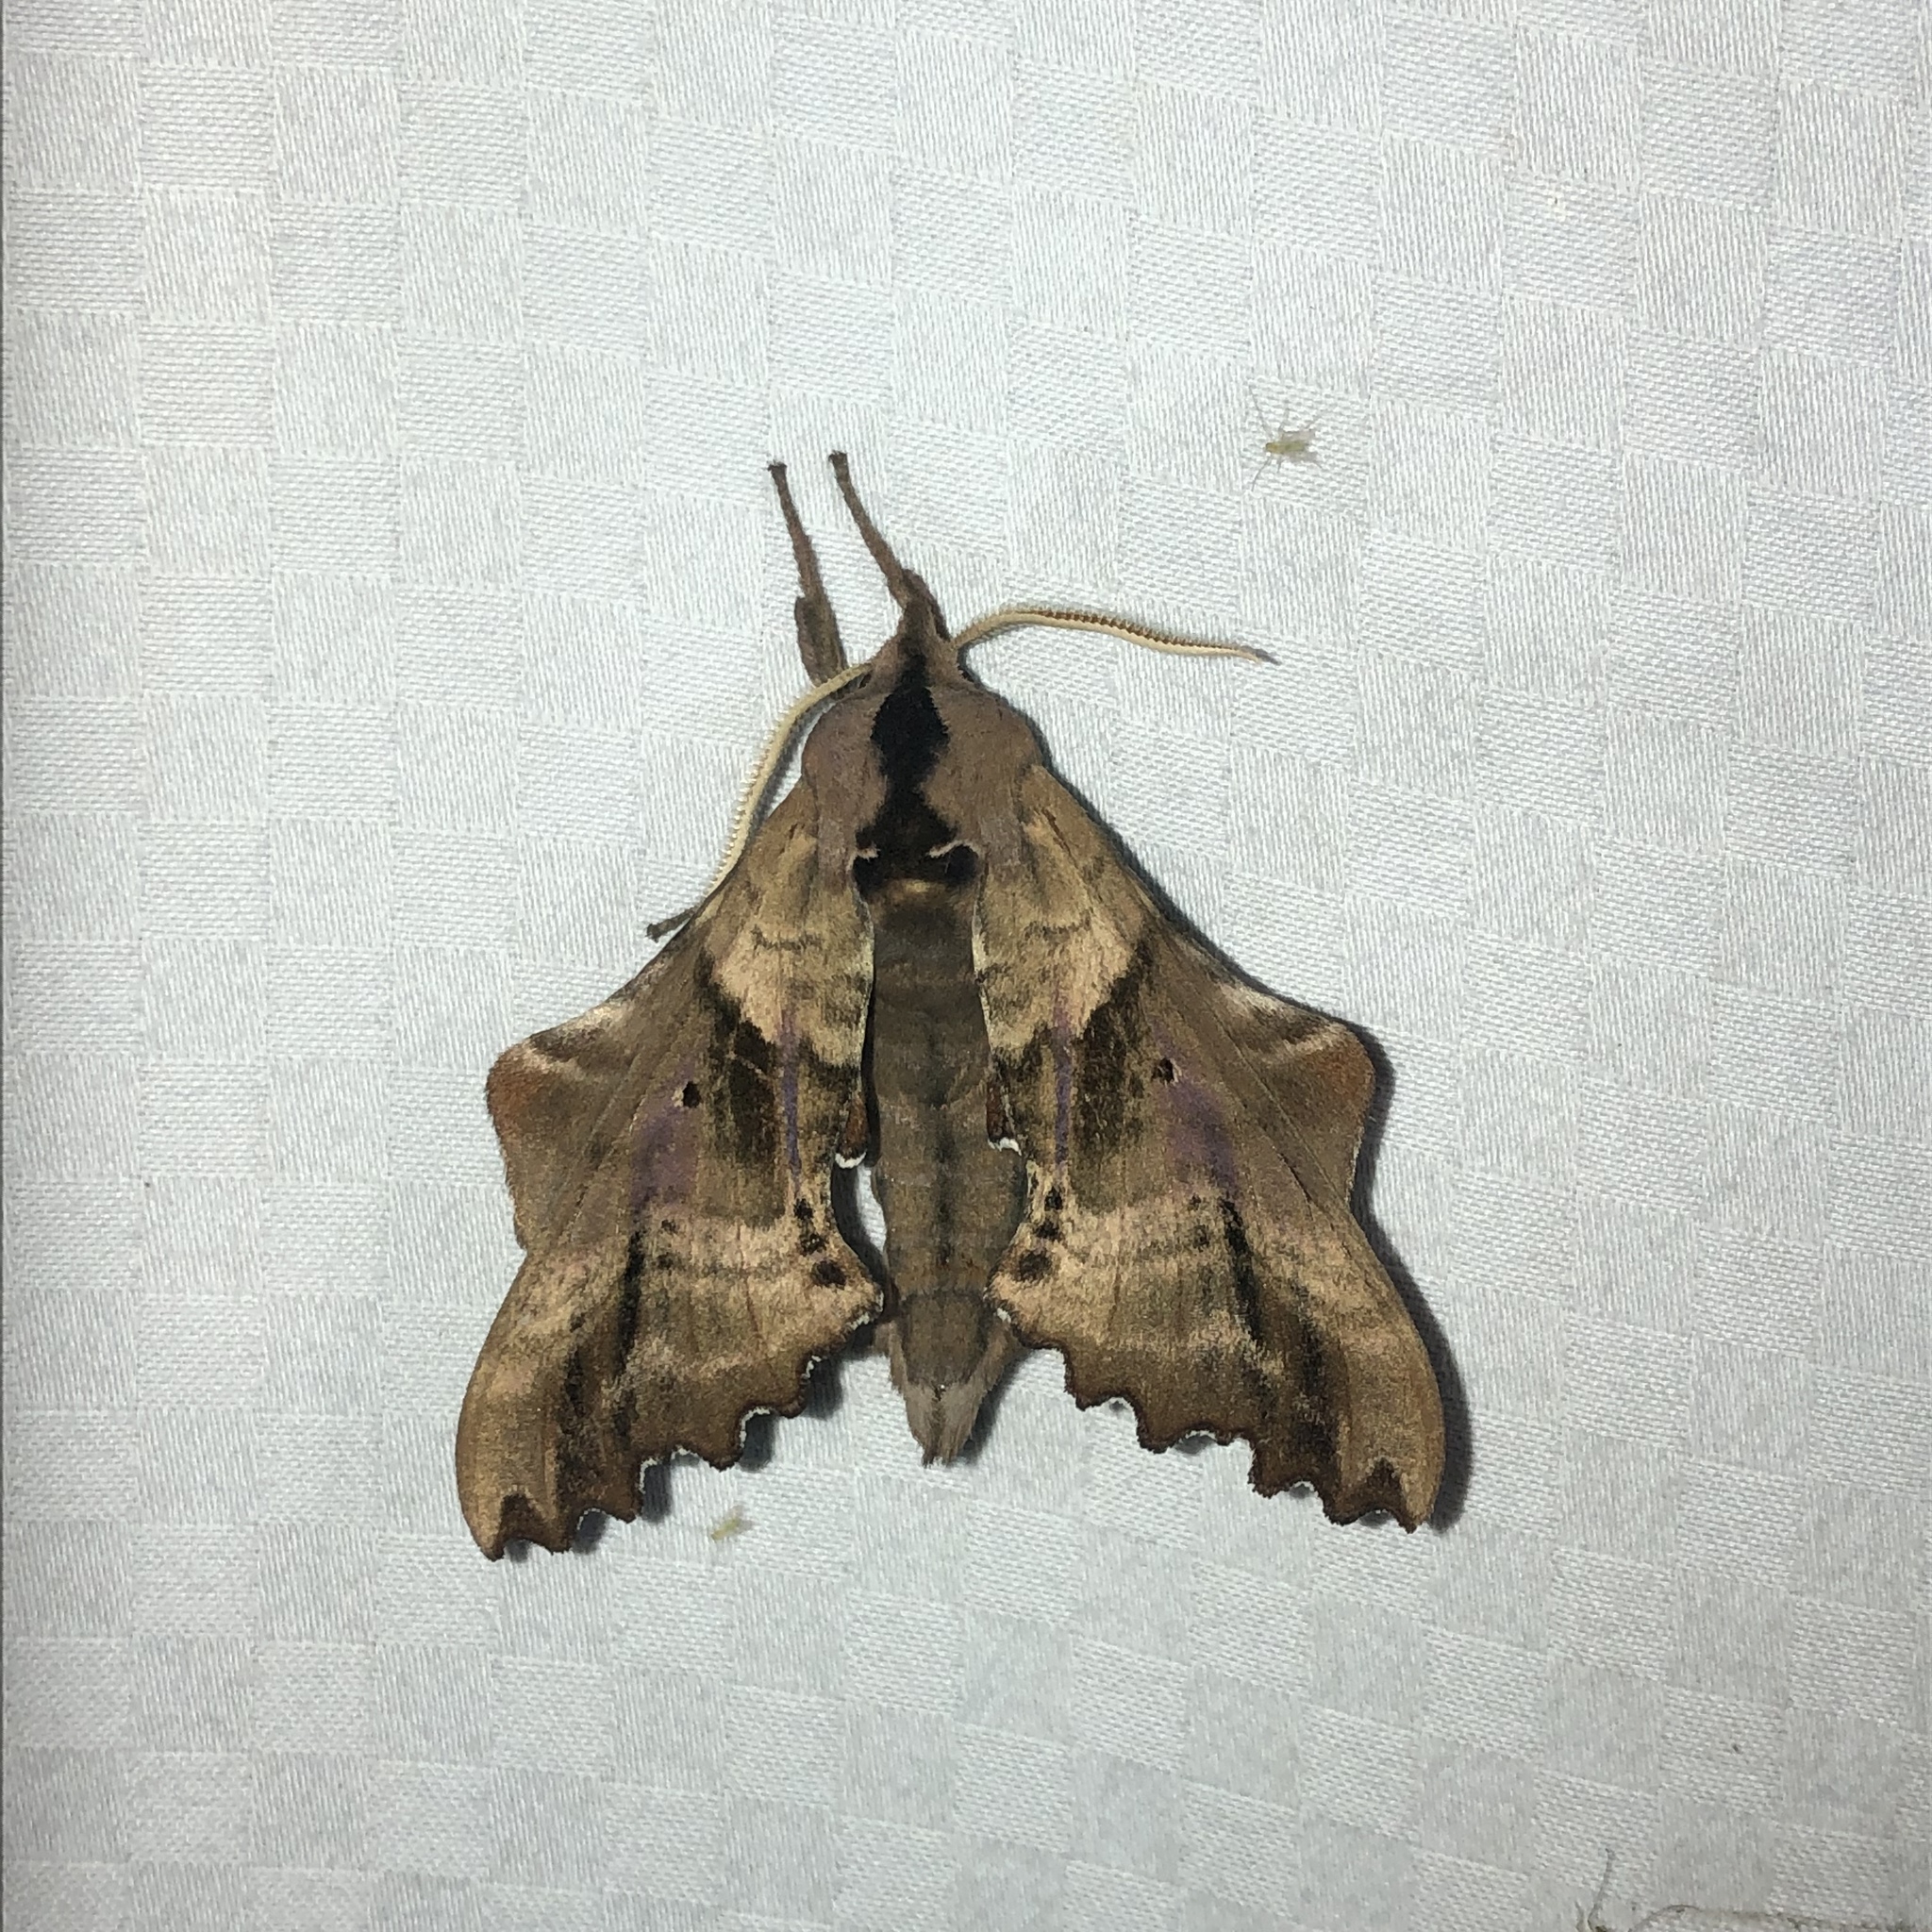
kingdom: Animalia
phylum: Arthropoda
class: Insecta
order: Lepidoptera
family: Sphingidae
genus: Paonias
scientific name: Paonias excaecata
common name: Blind-eyed sphinx
